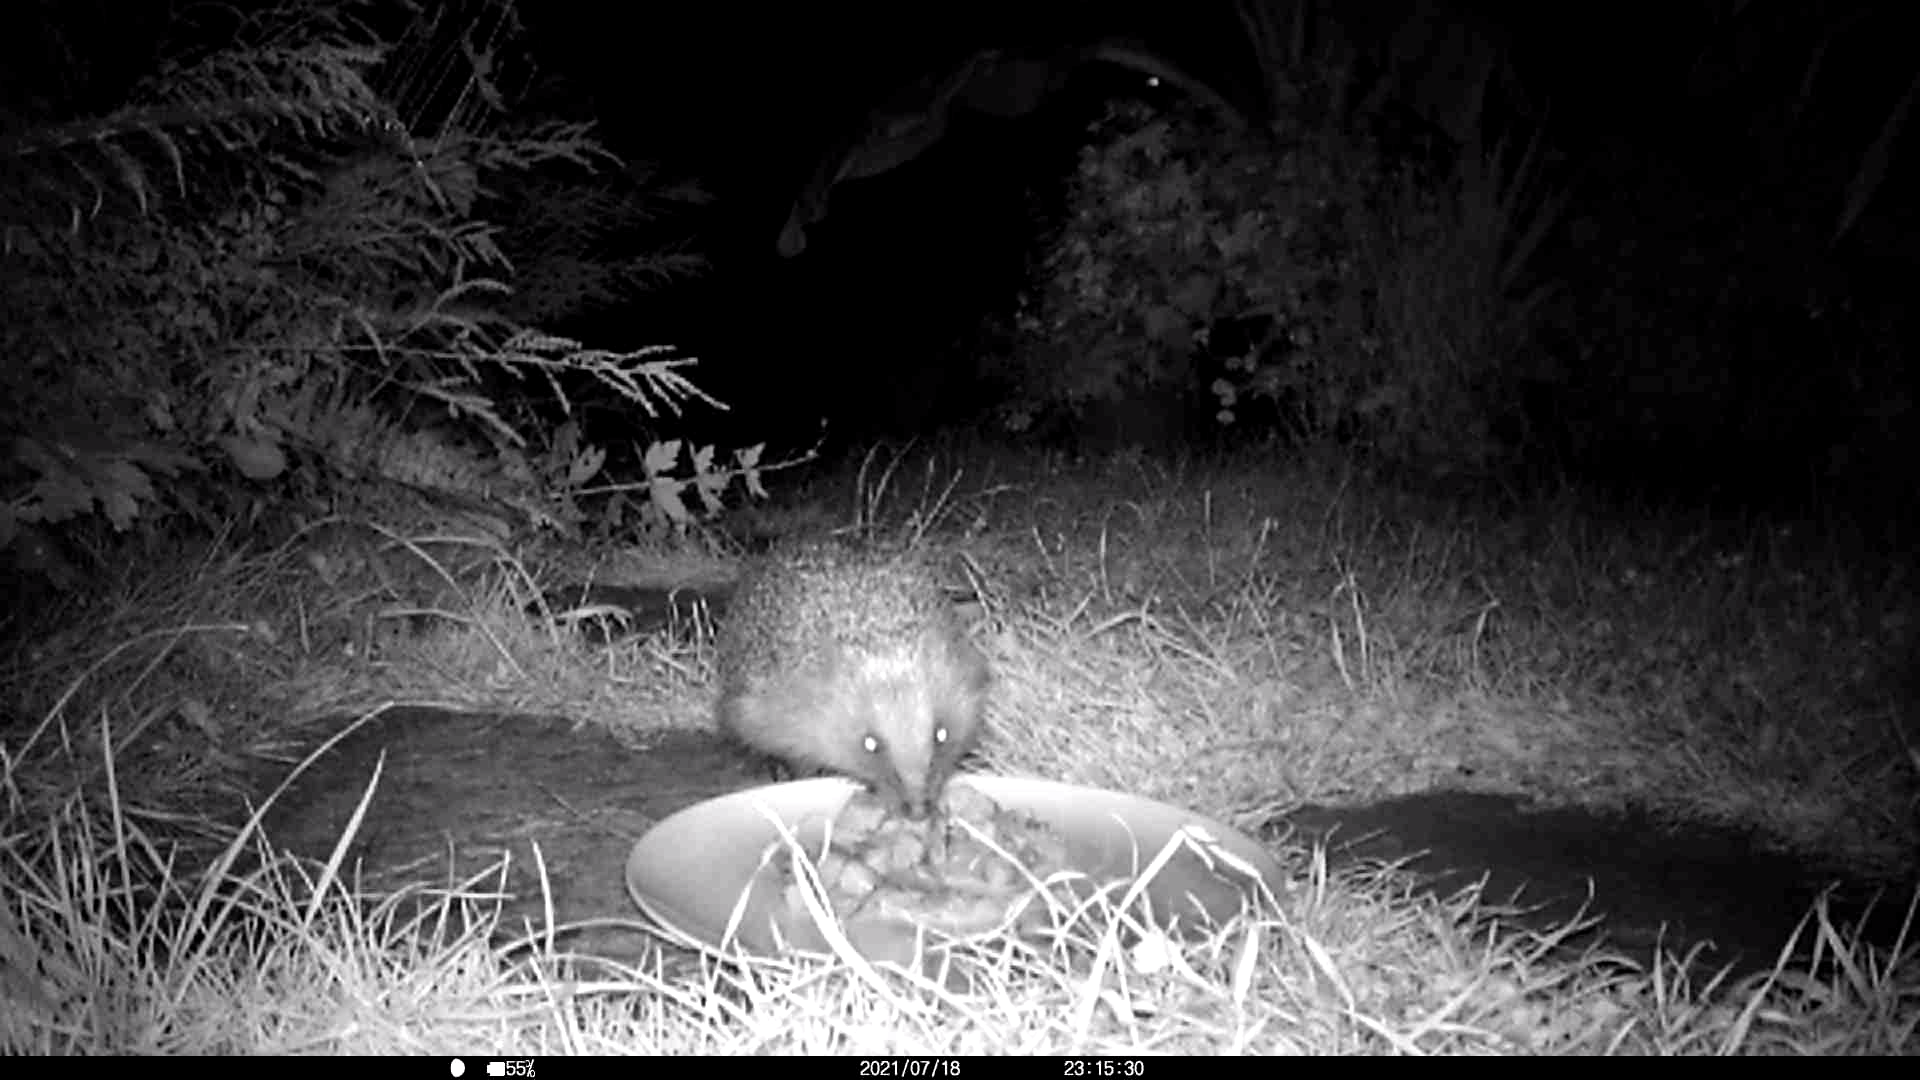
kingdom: Animalia
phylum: Chordata
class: Mammalia
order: Erinaceomorpha
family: Erinaceidae
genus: Erinaceus
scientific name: Erinaceus europaeus
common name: West european hedgehog
